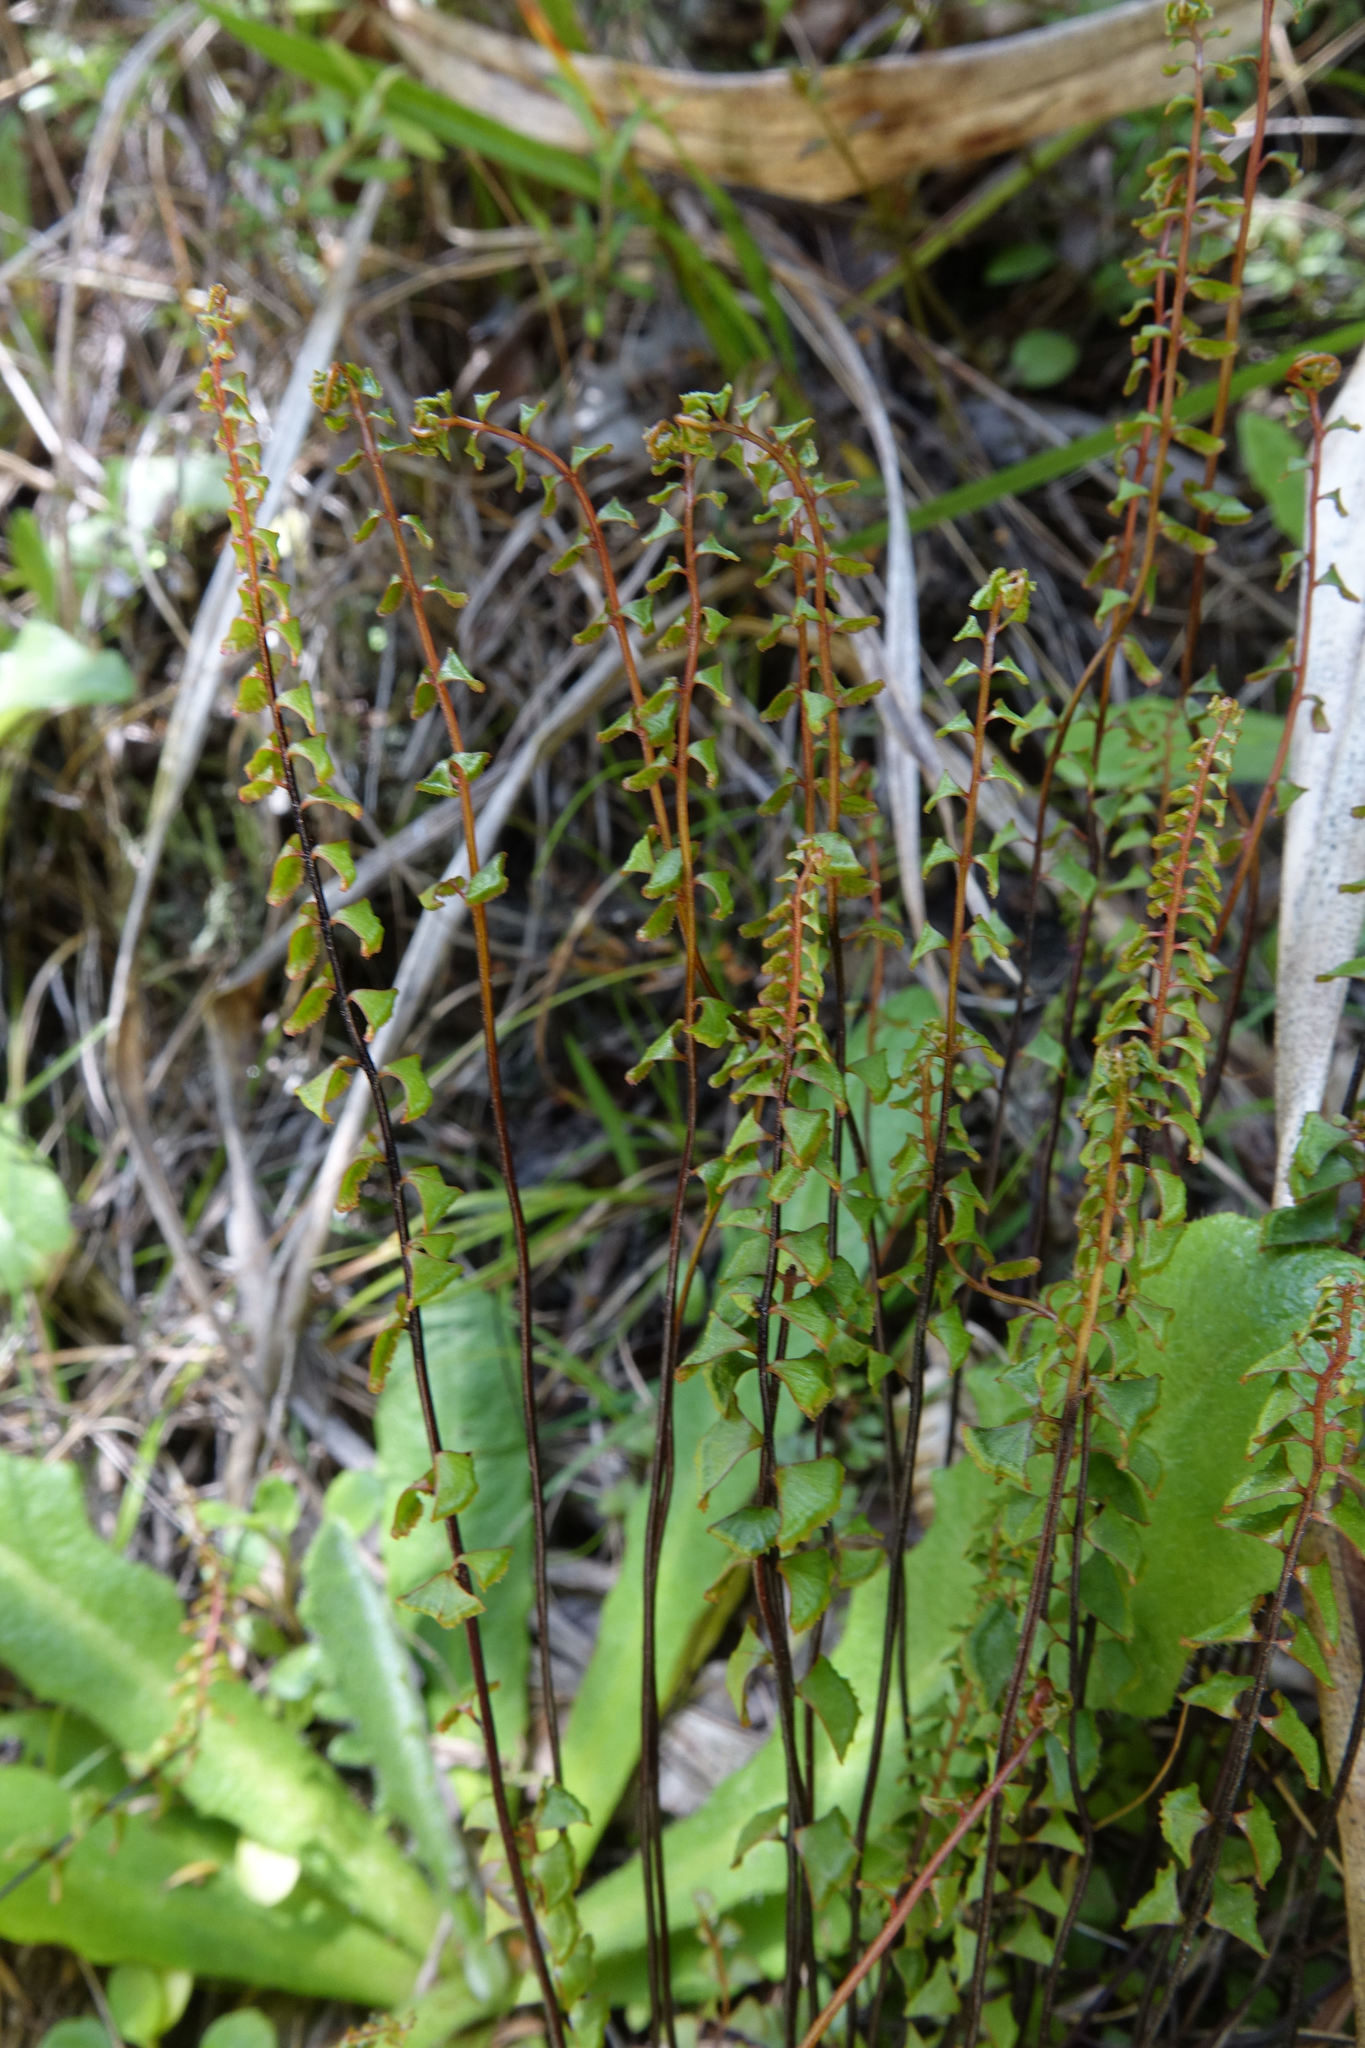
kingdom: Plantae
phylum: Tracheophyta
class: Polypodiopsida
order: Polypodiales
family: Lindsaeaceae
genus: Lindsaea
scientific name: Lindsaea linearis
